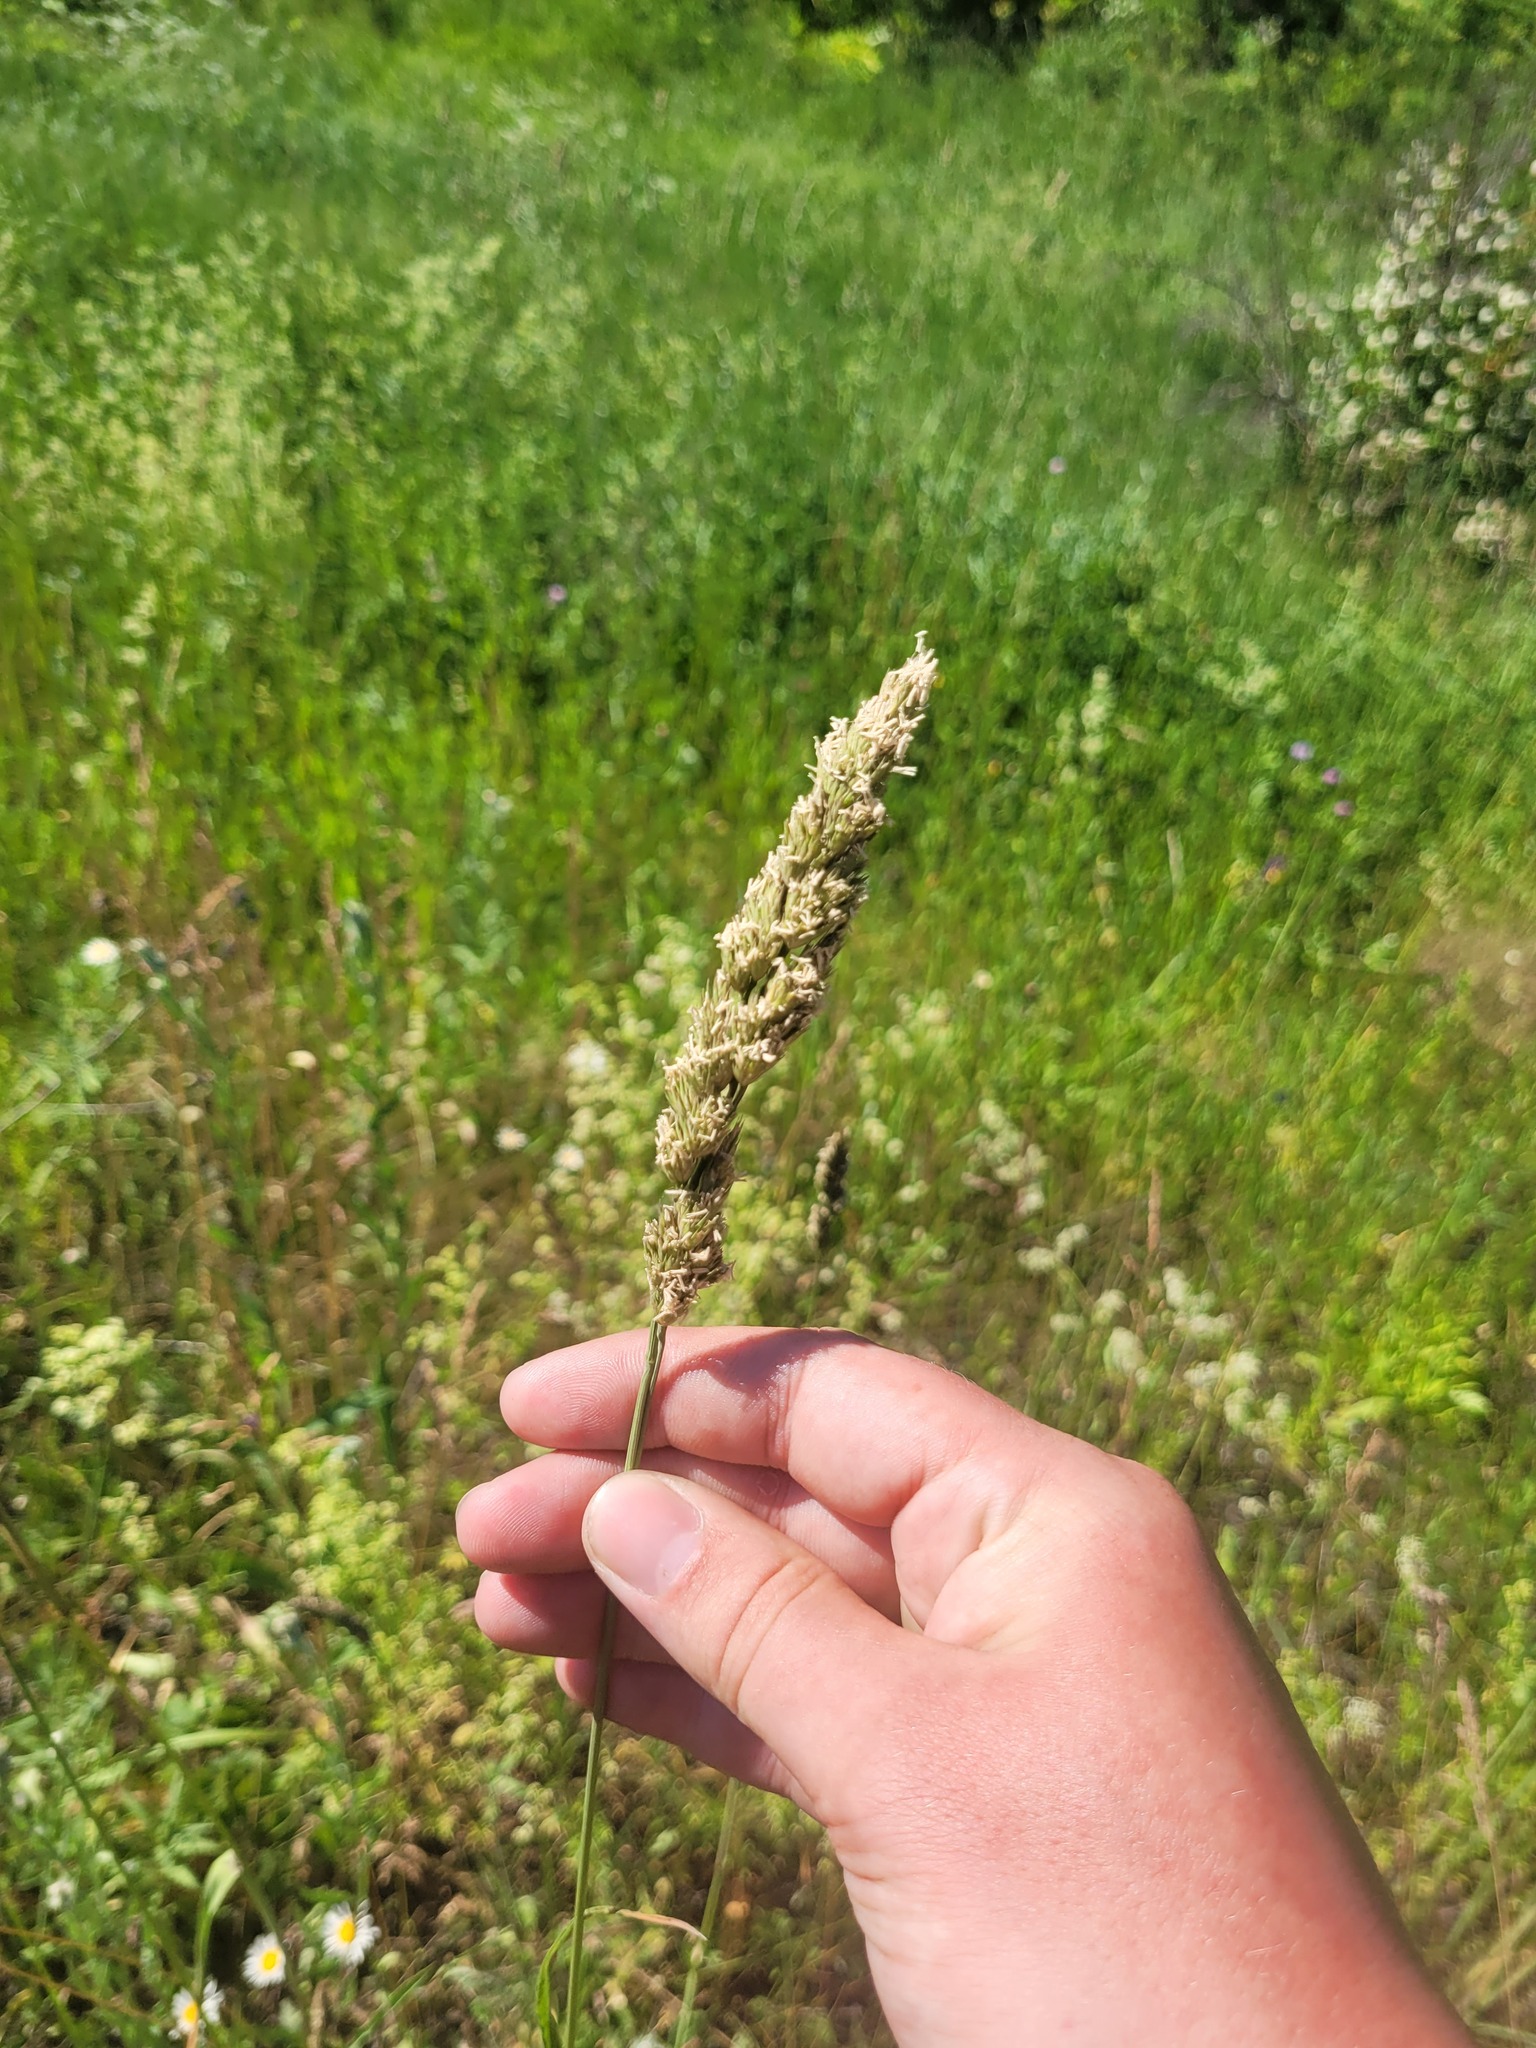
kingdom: Plantae
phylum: Tracheophyta
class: Liliopsida
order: Poales
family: Poaceae
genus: Dactylis
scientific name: Dactylis glomerata
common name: Orchardgrass
